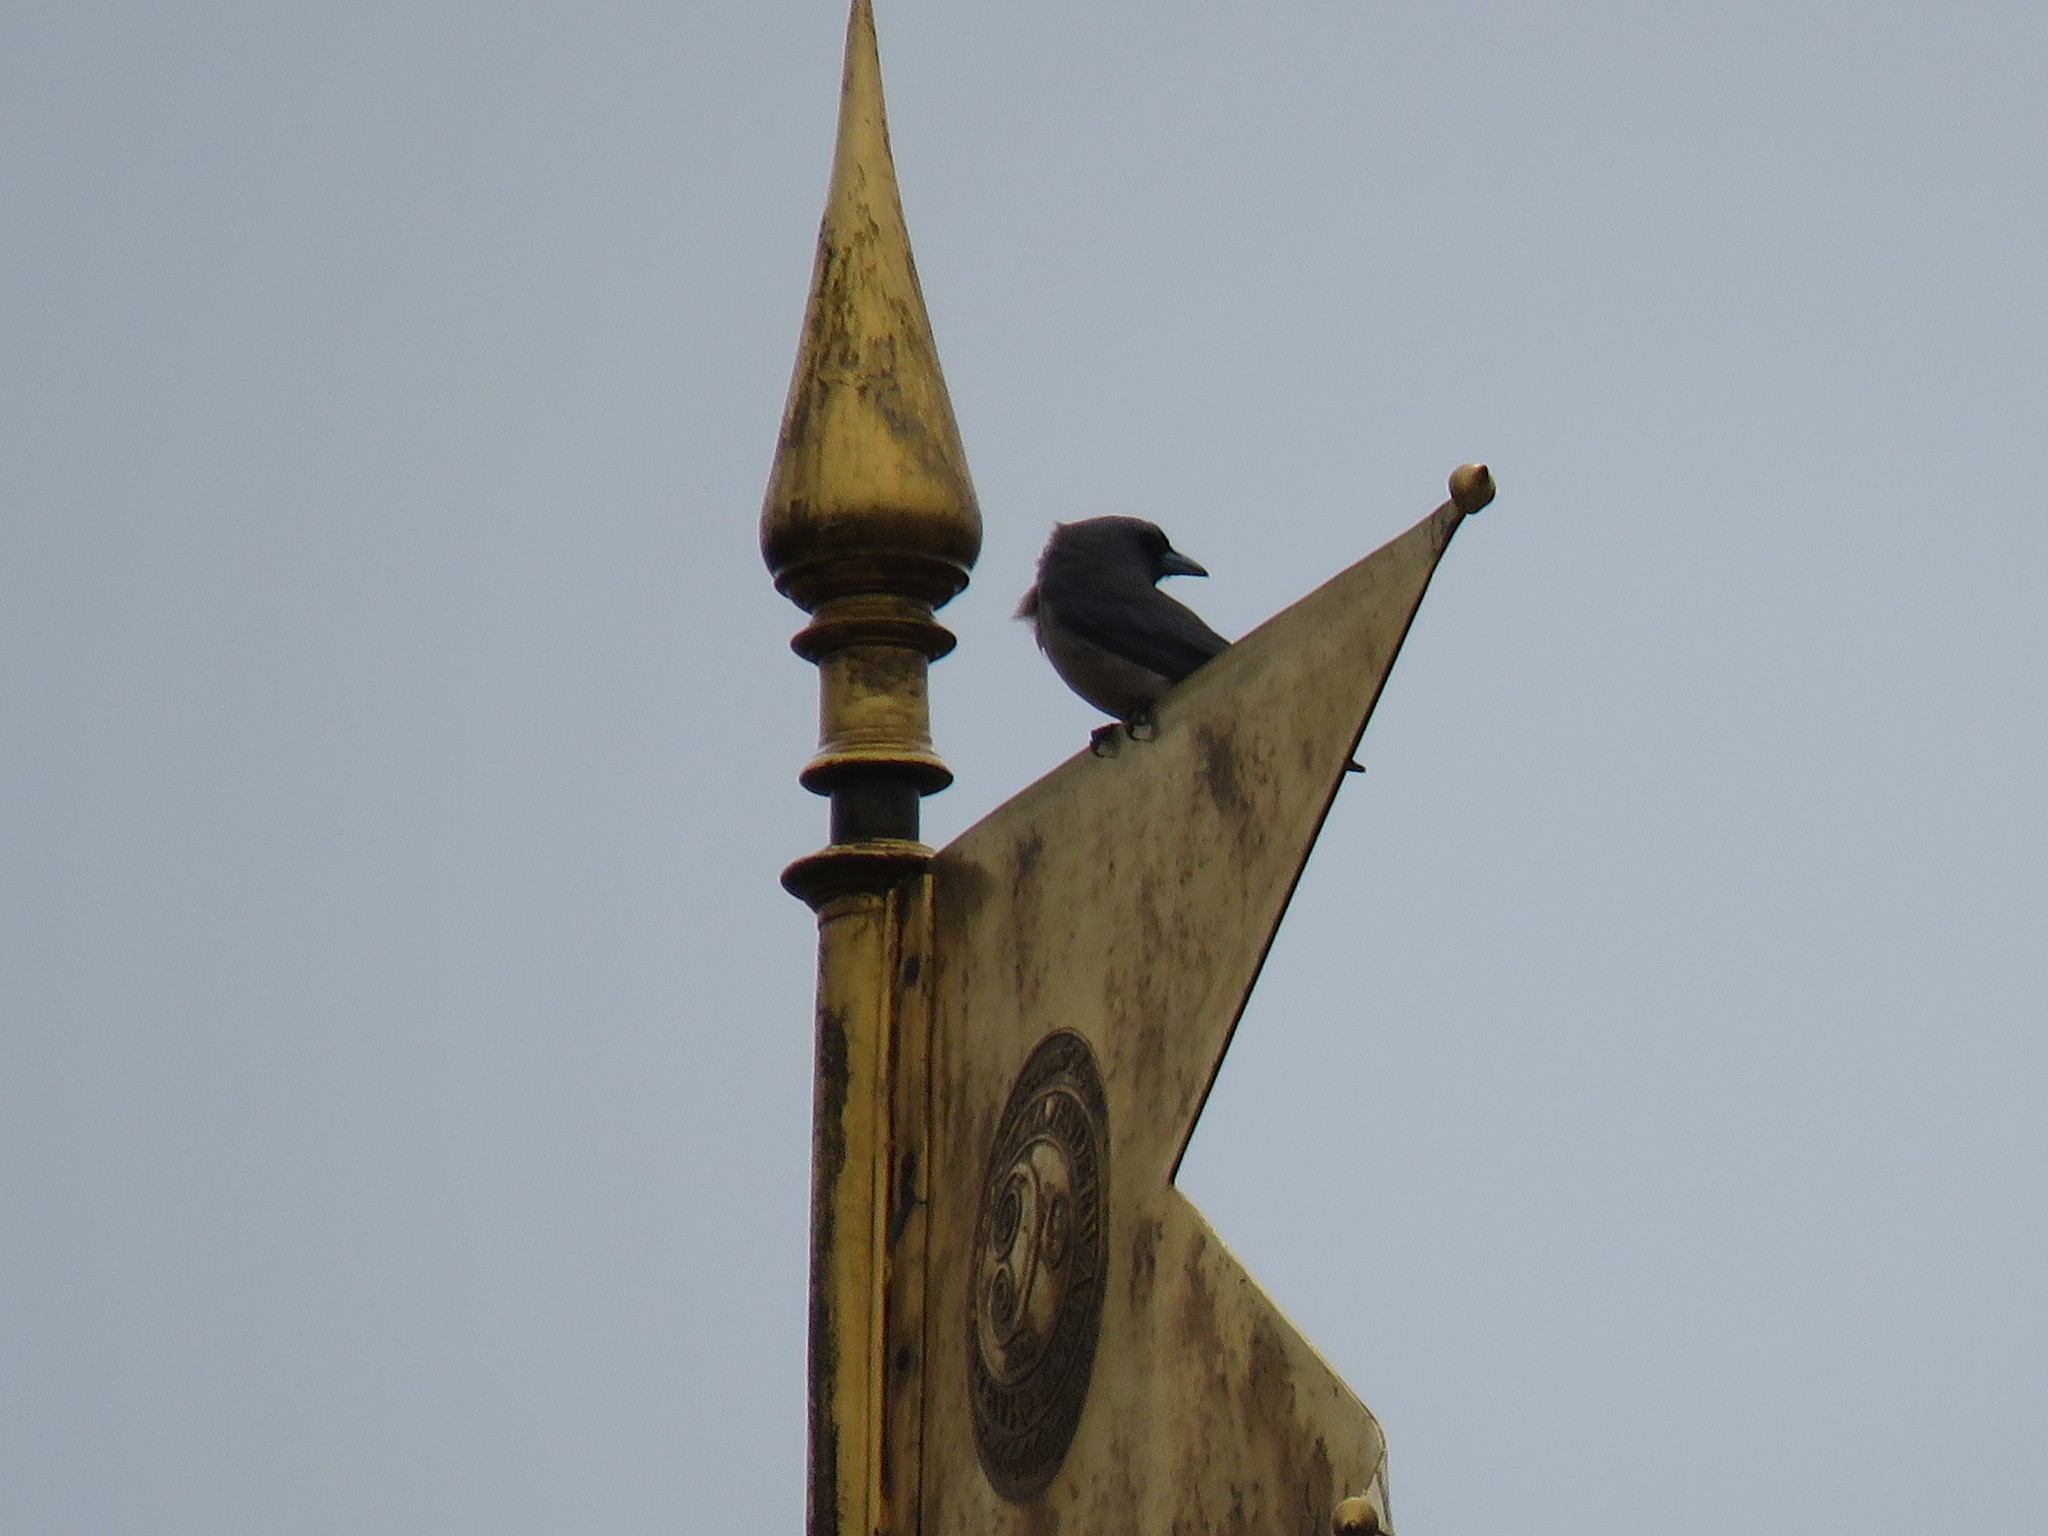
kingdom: Animalia
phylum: Chordata
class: Aves
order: Passeriformes
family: Artamidae
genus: Artamus
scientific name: Artamus fuscus
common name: Ashy woodswallow
